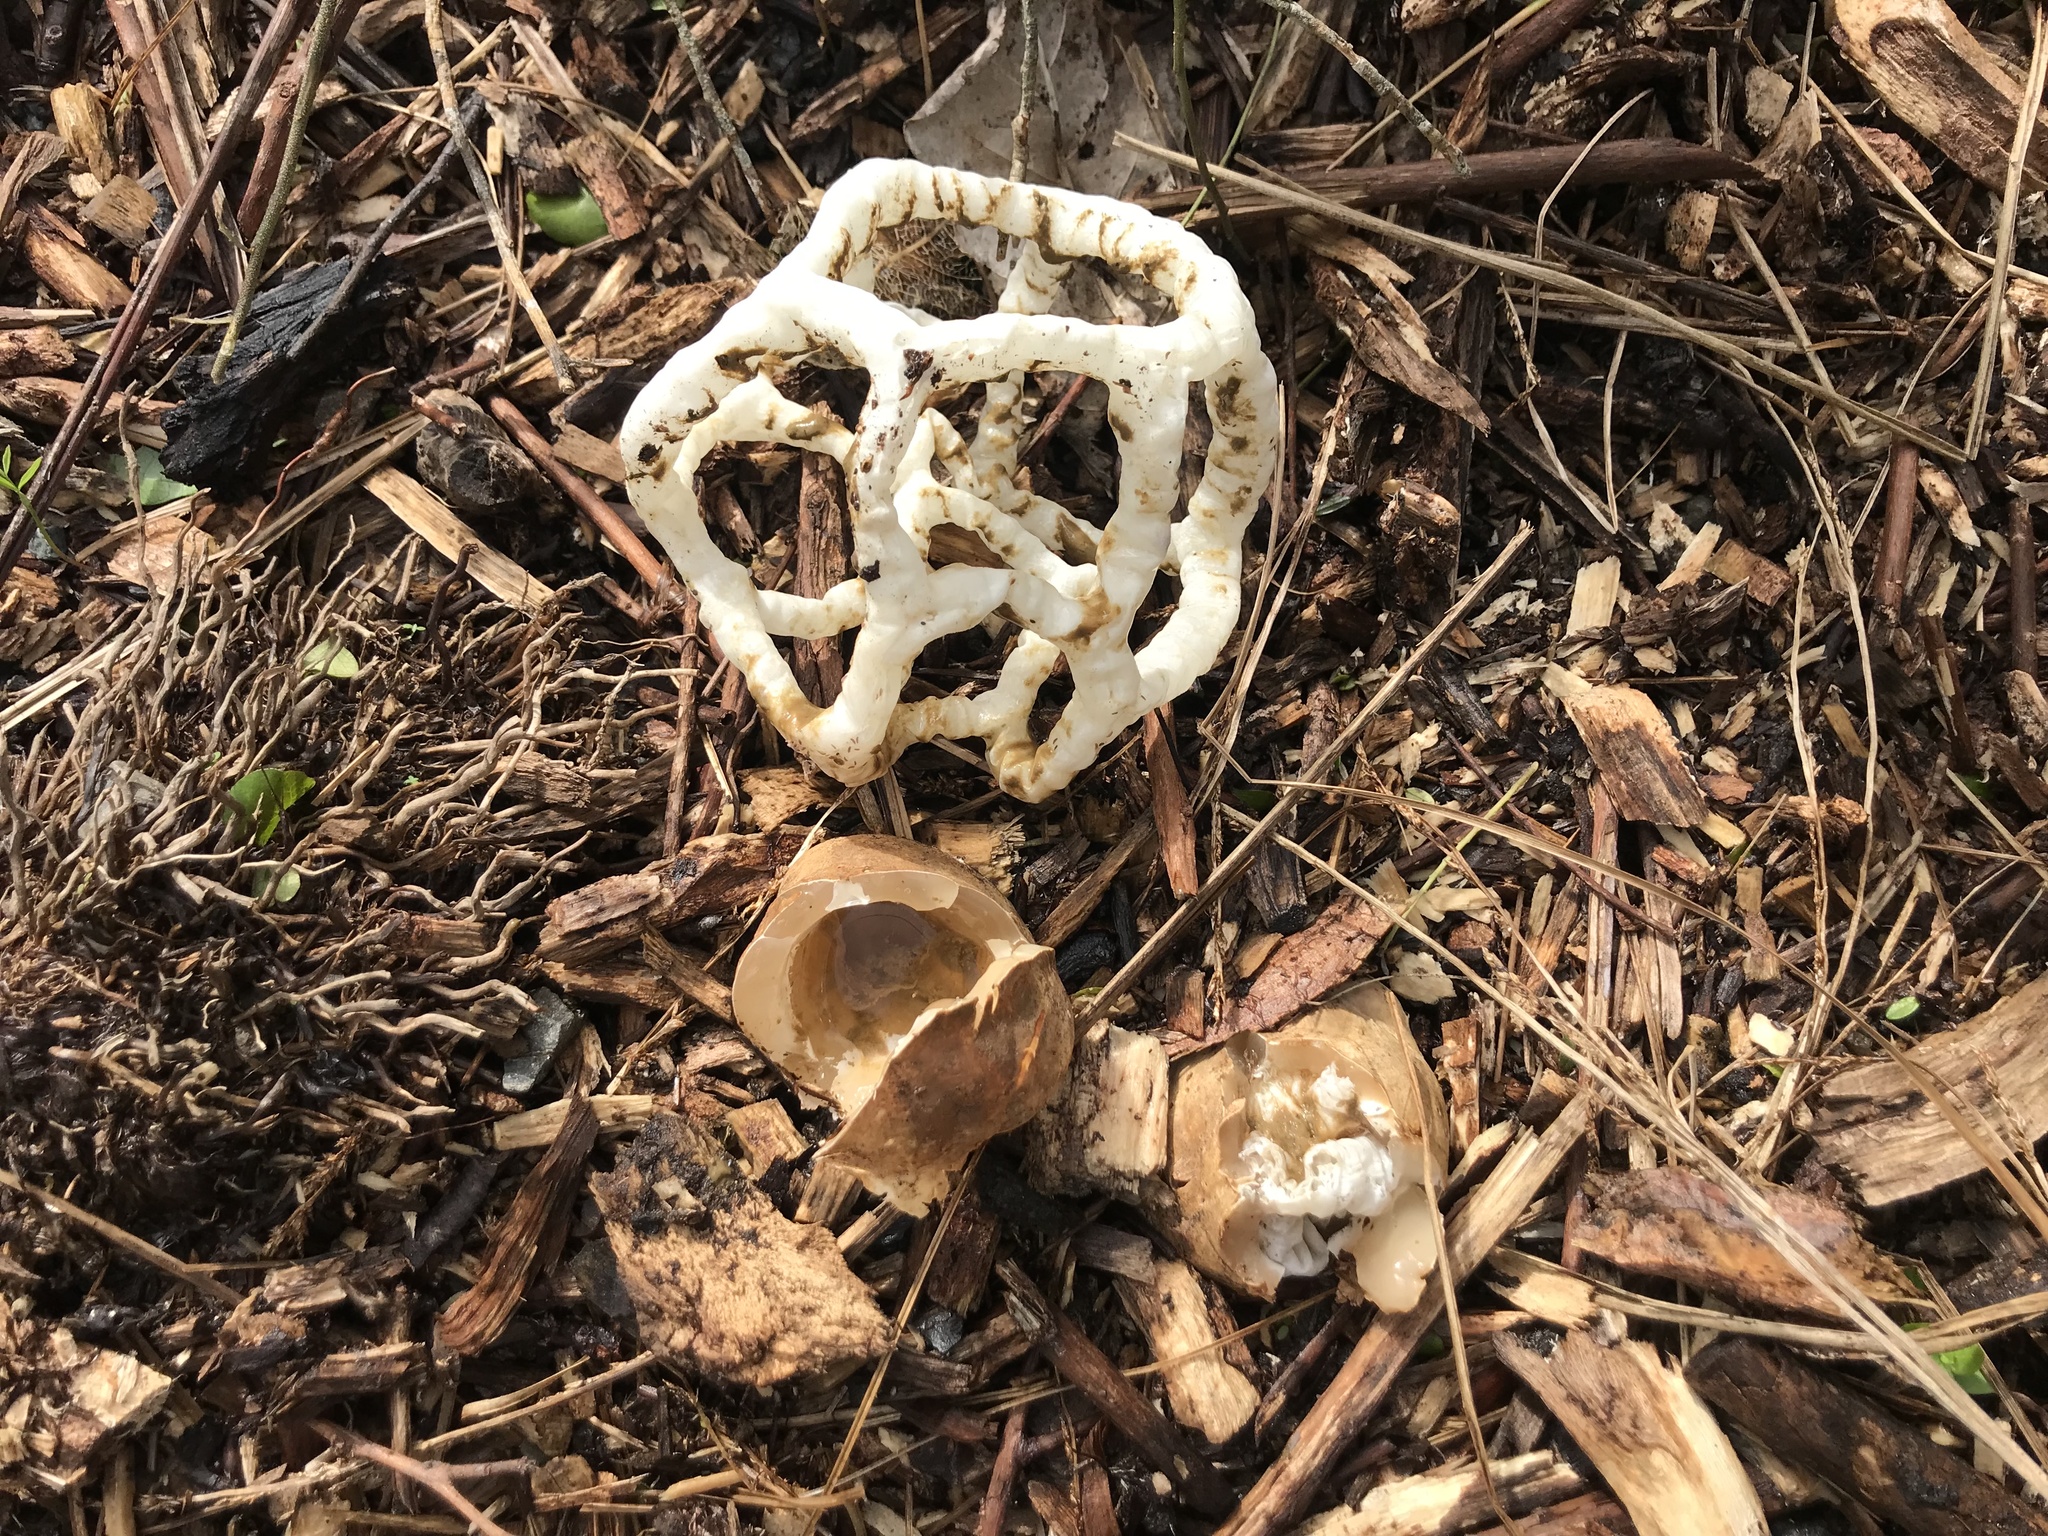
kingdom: Fungi
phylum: Basidiomycota
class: Agaricomycetes
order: Phallales
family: Phallaceae
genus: Ileodictyon
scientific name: Ileodictyon cibarium
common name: Basket fungus
